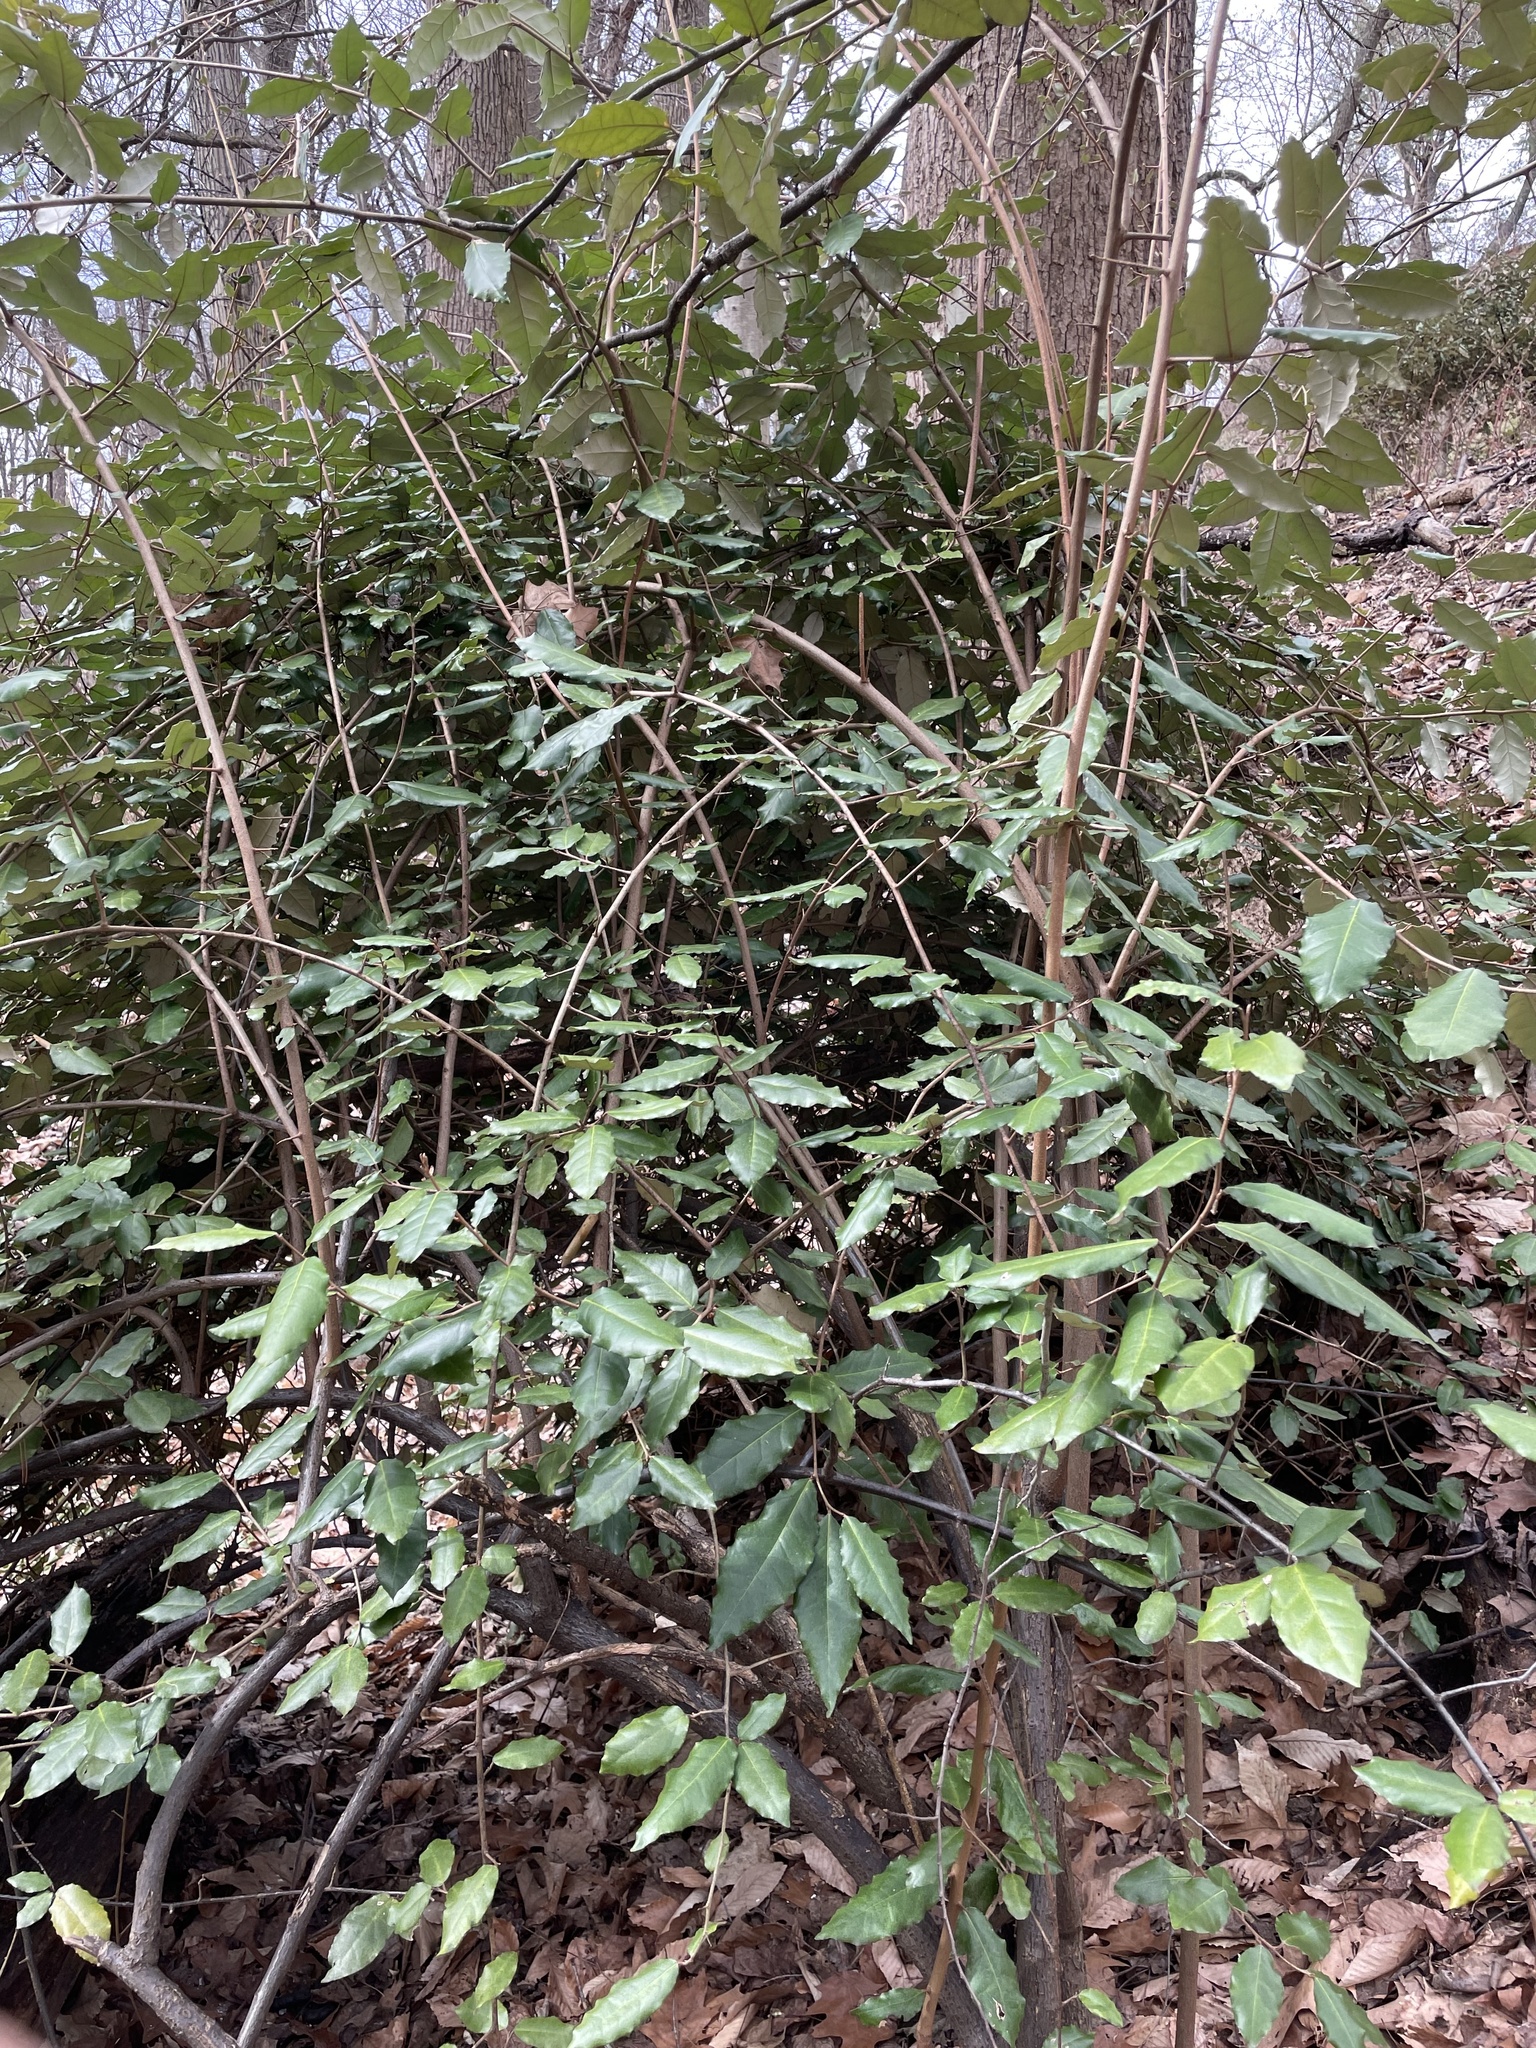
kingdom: Plantae
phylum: Tracheophyta
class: Magnoliopsida
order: Rosales
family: Elaeagnaceae
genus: Elaeagnus
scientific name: Elaeagnus pungens
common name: Spiny oleaster
